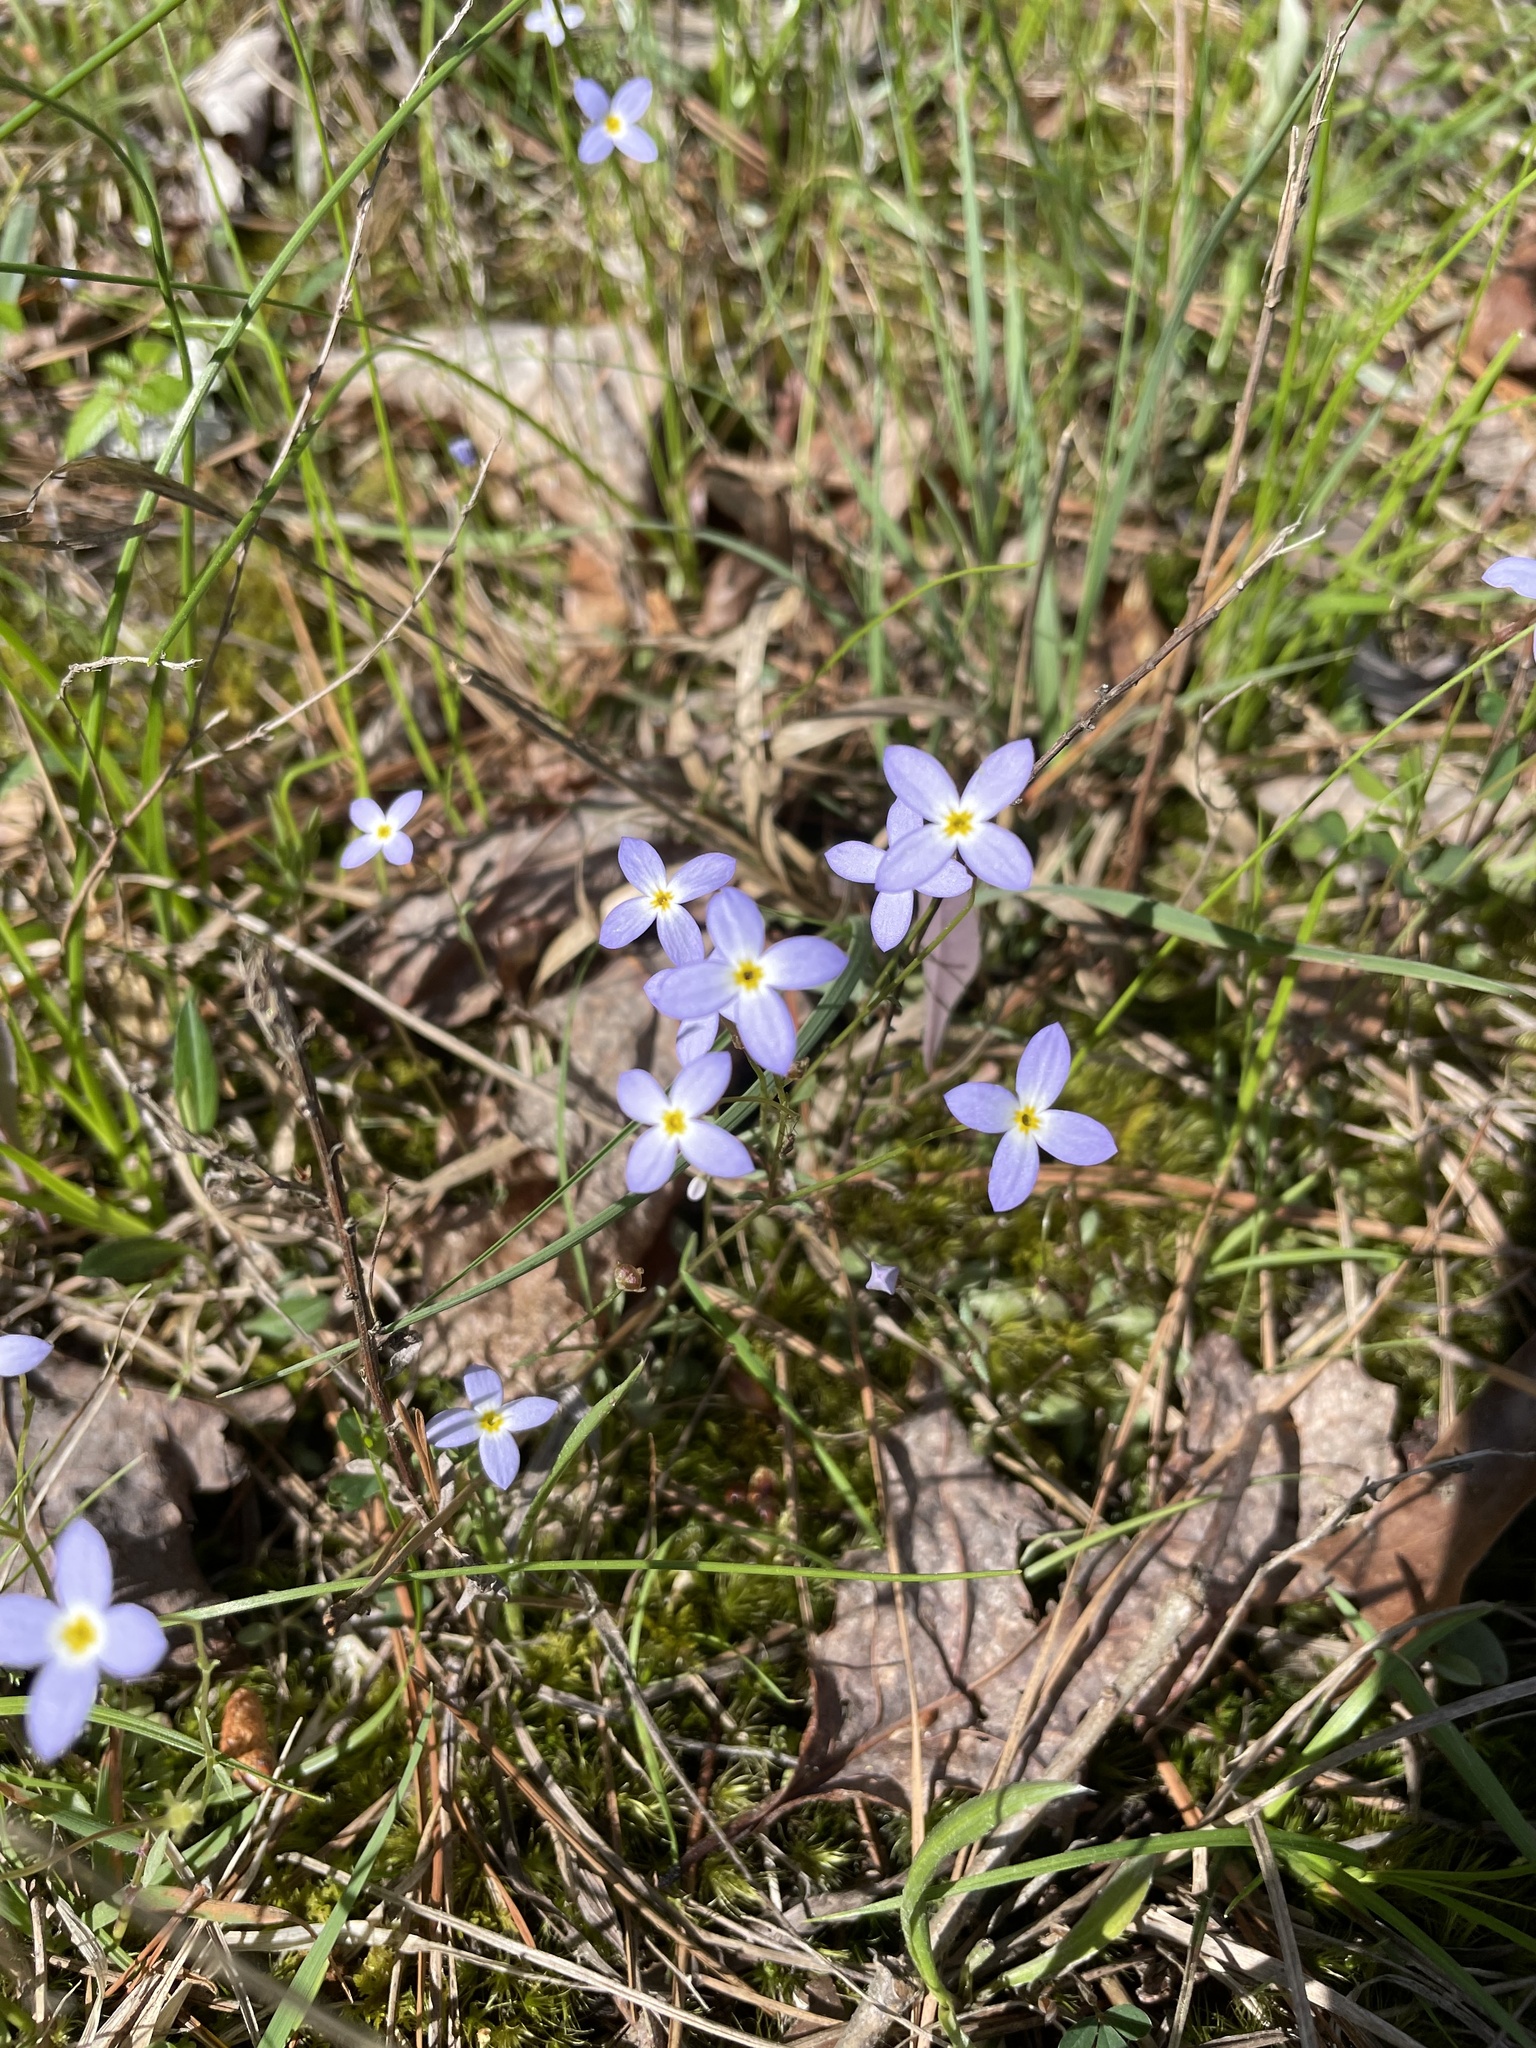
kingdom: Plantae
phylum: Tracheophyta
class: Magnoliopsida
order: Gentianales
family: Rubiaceae
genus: Houstonia
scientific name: Houstonia caerulea
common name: Bluets
